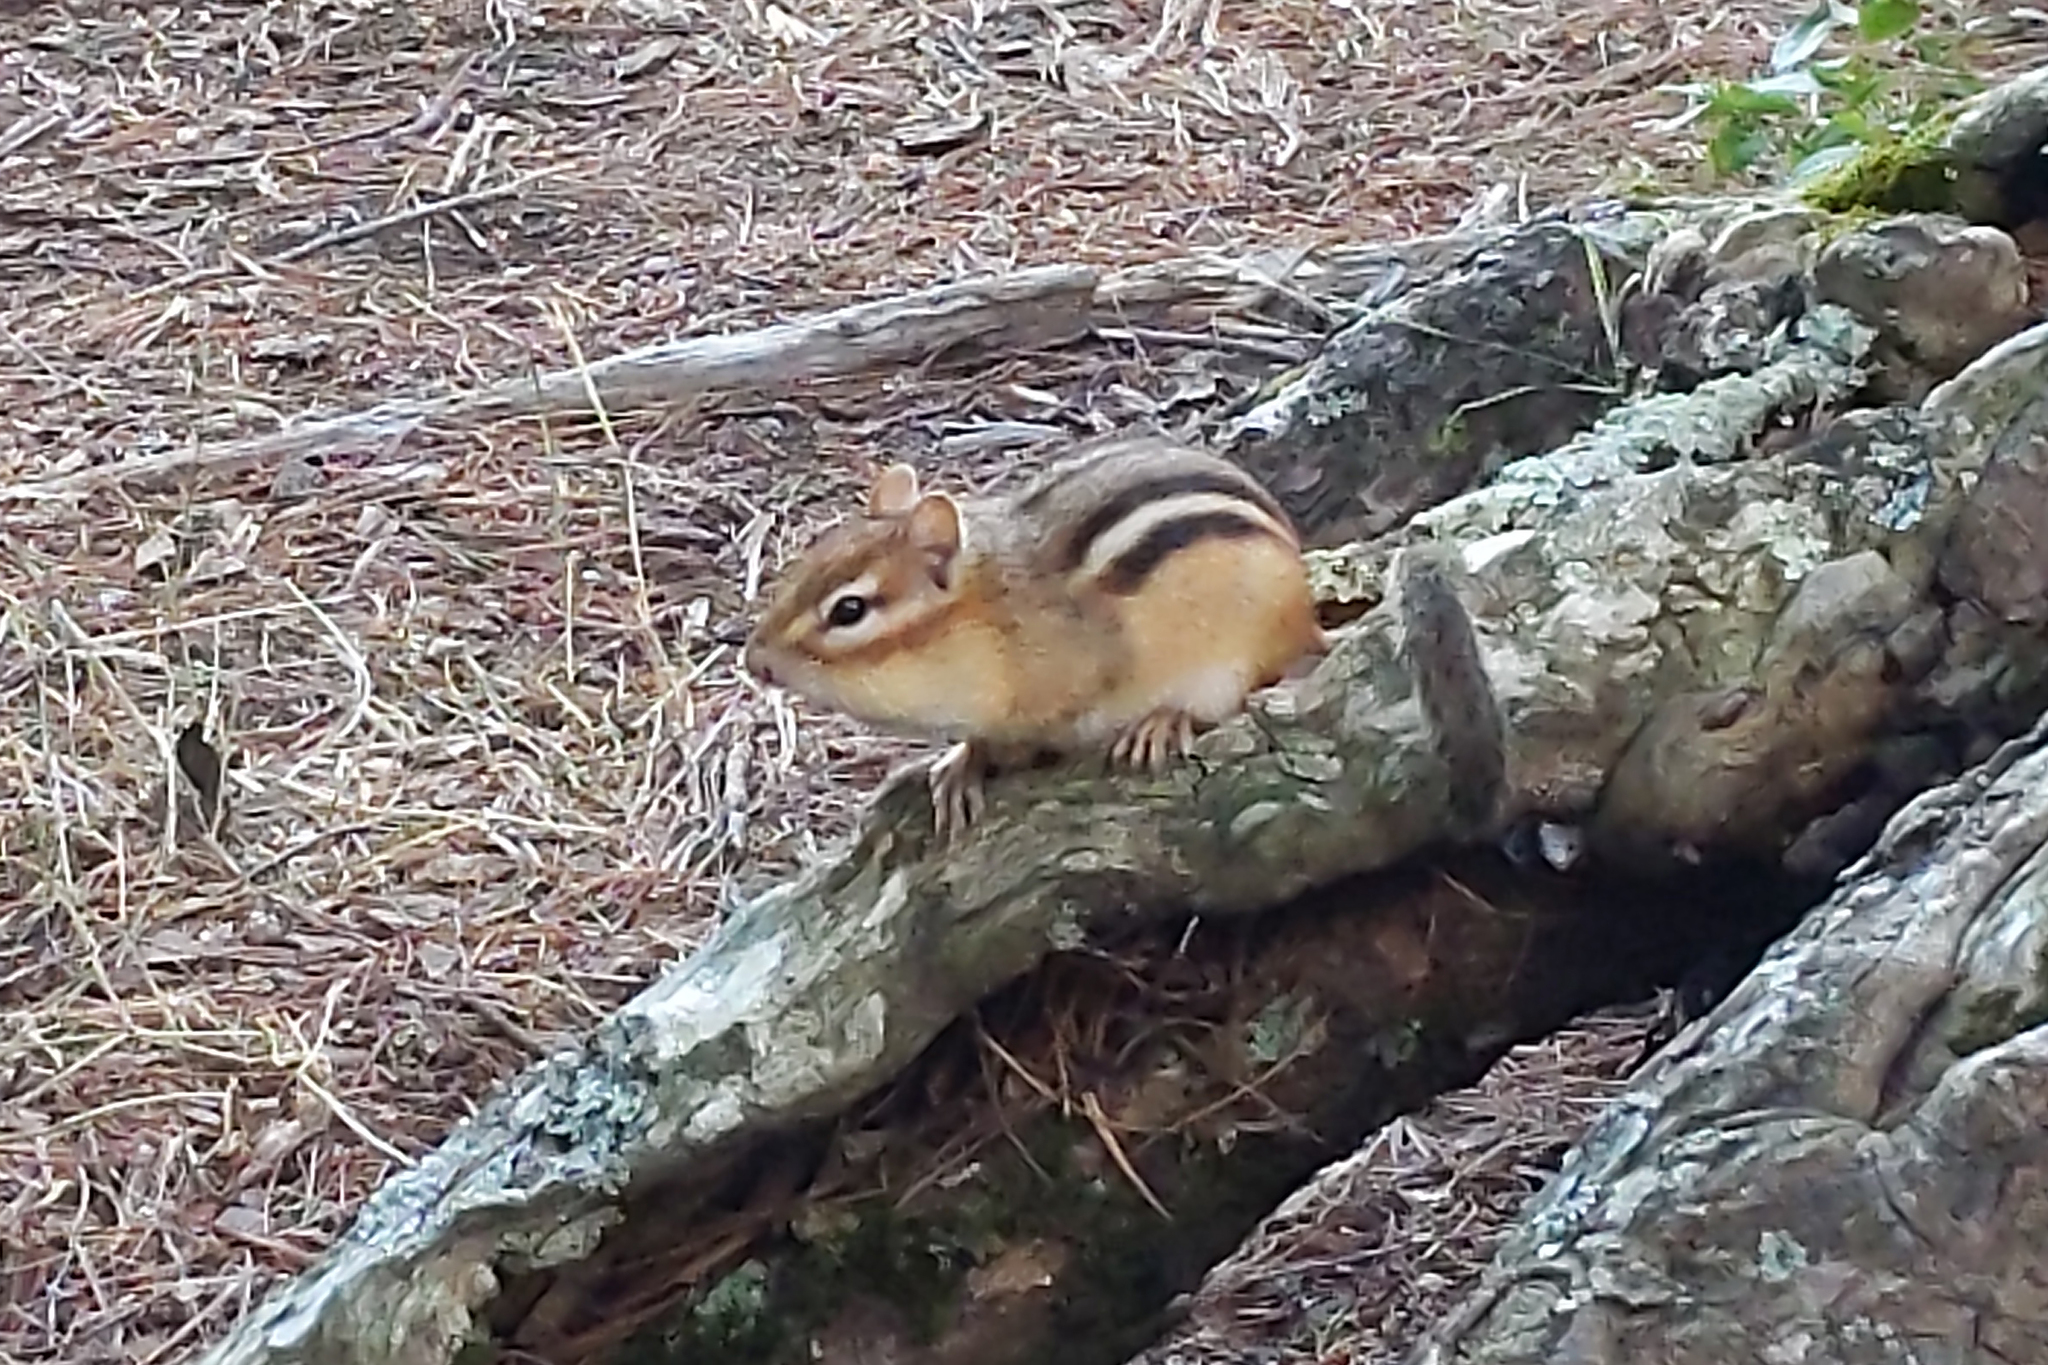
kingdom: Animalia
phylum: Chordata
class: Mammalia
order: Rodentia
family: Sciuridae
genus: Tamias
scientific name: Tamias striatus
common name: Eastern chipmunk
